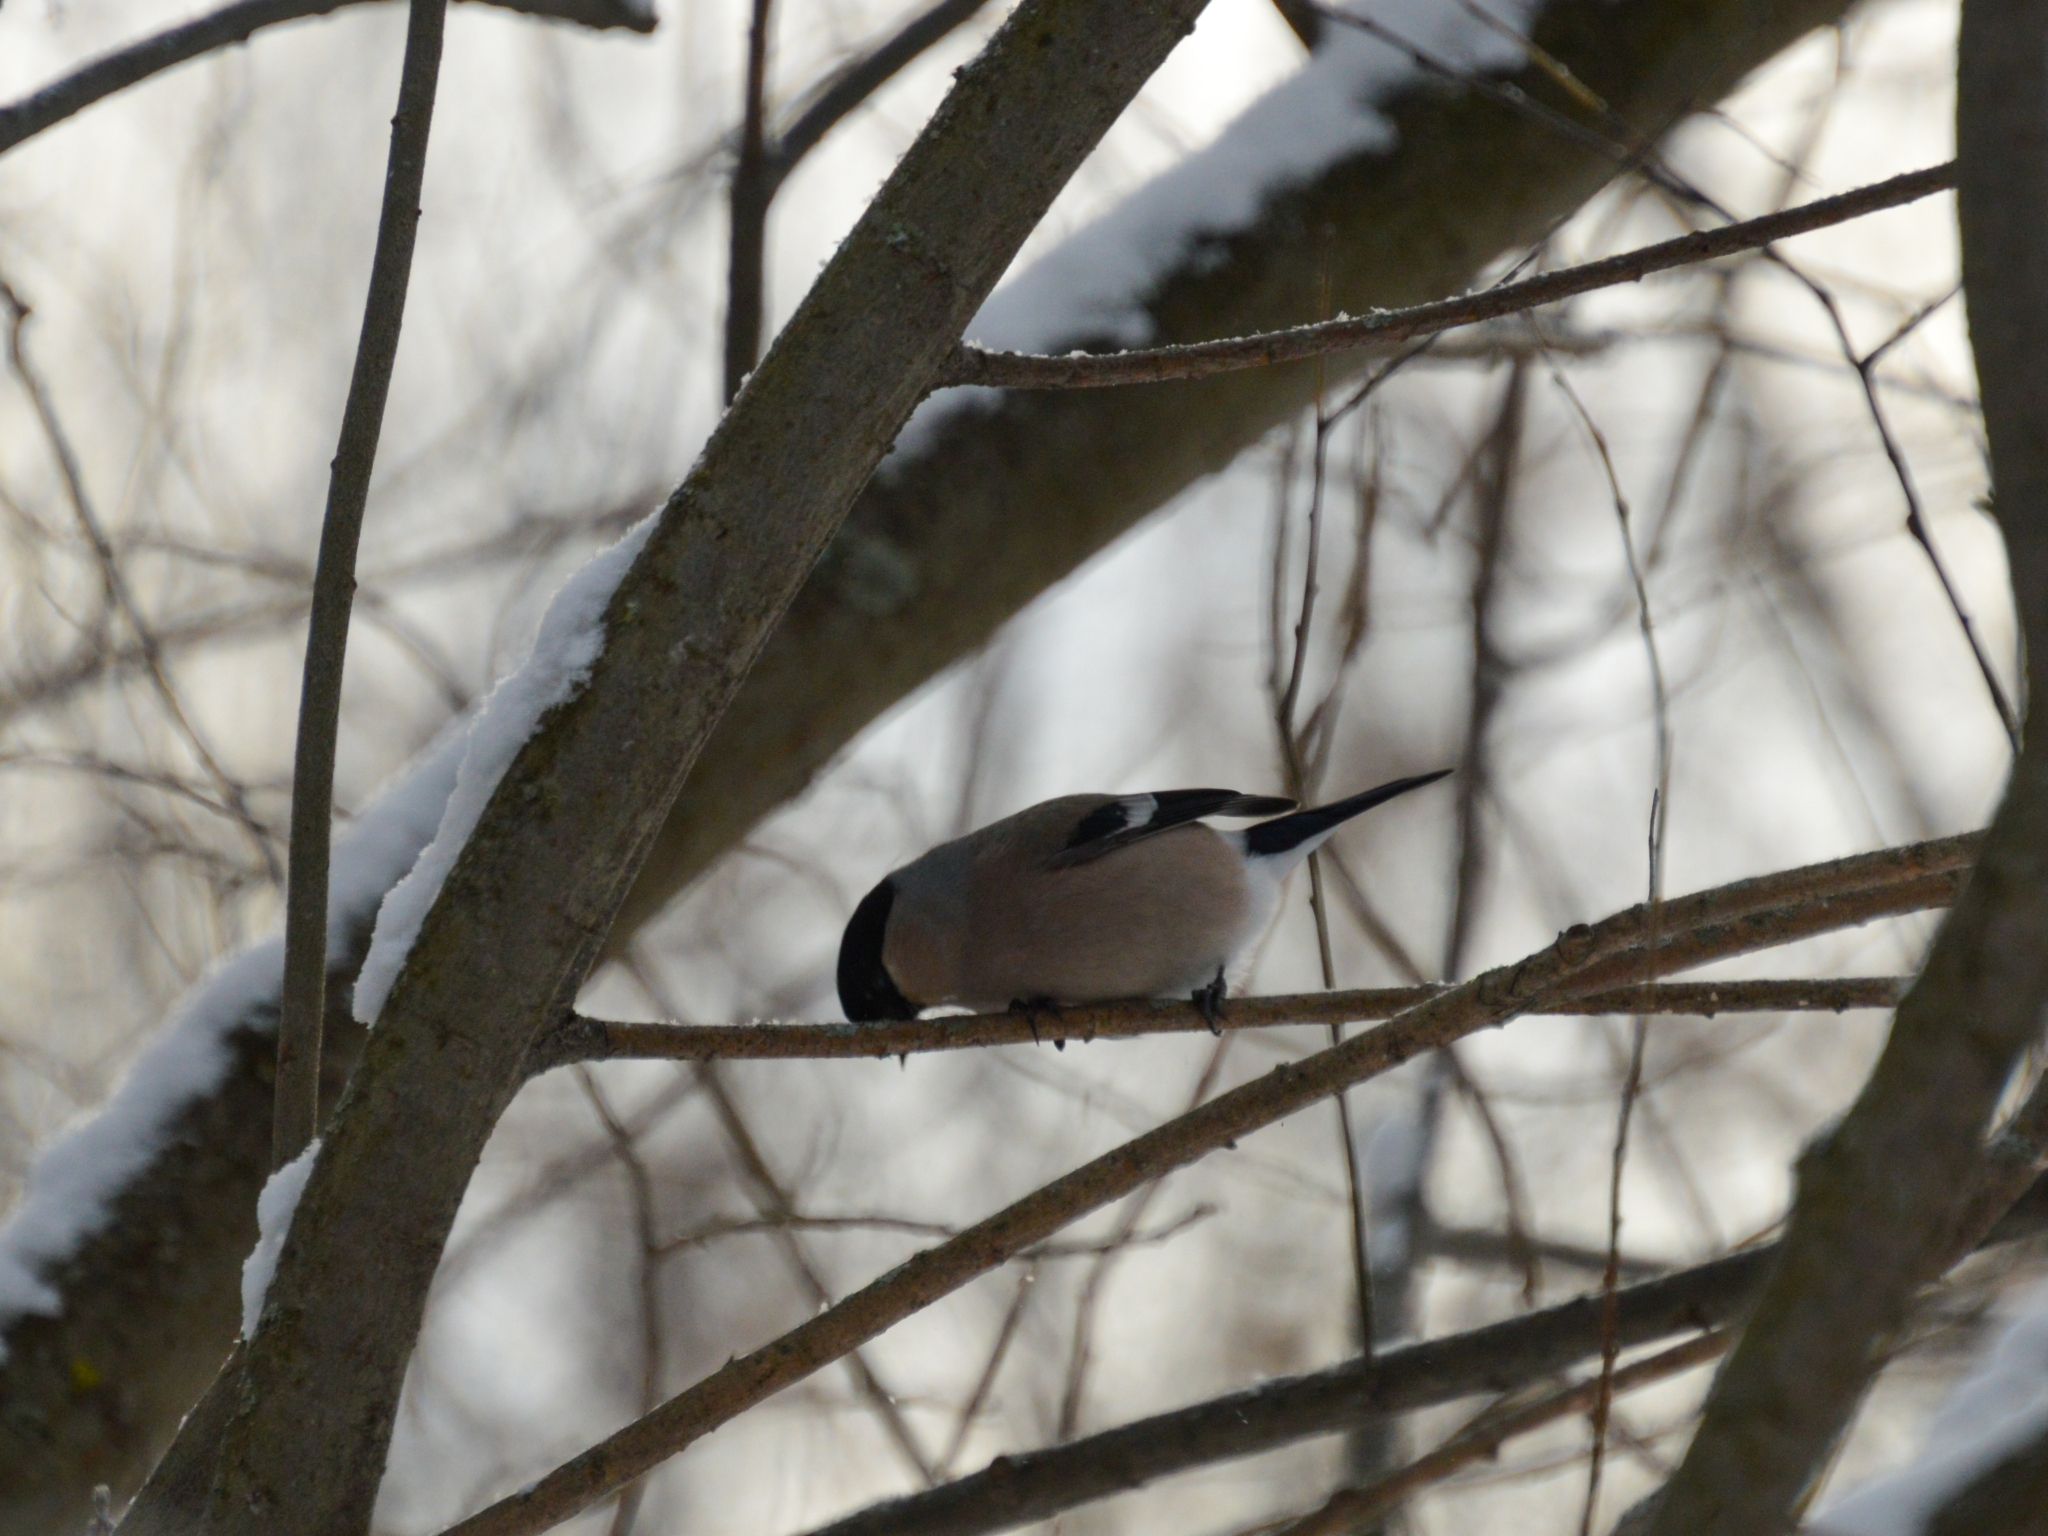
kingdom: Animalia
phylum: Chordata
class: Aves
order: Passeriformes
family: Fringillidae
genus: Pyrrhula
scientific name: Pyrrhula pyrrhula
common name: Eurasian bullfinch
